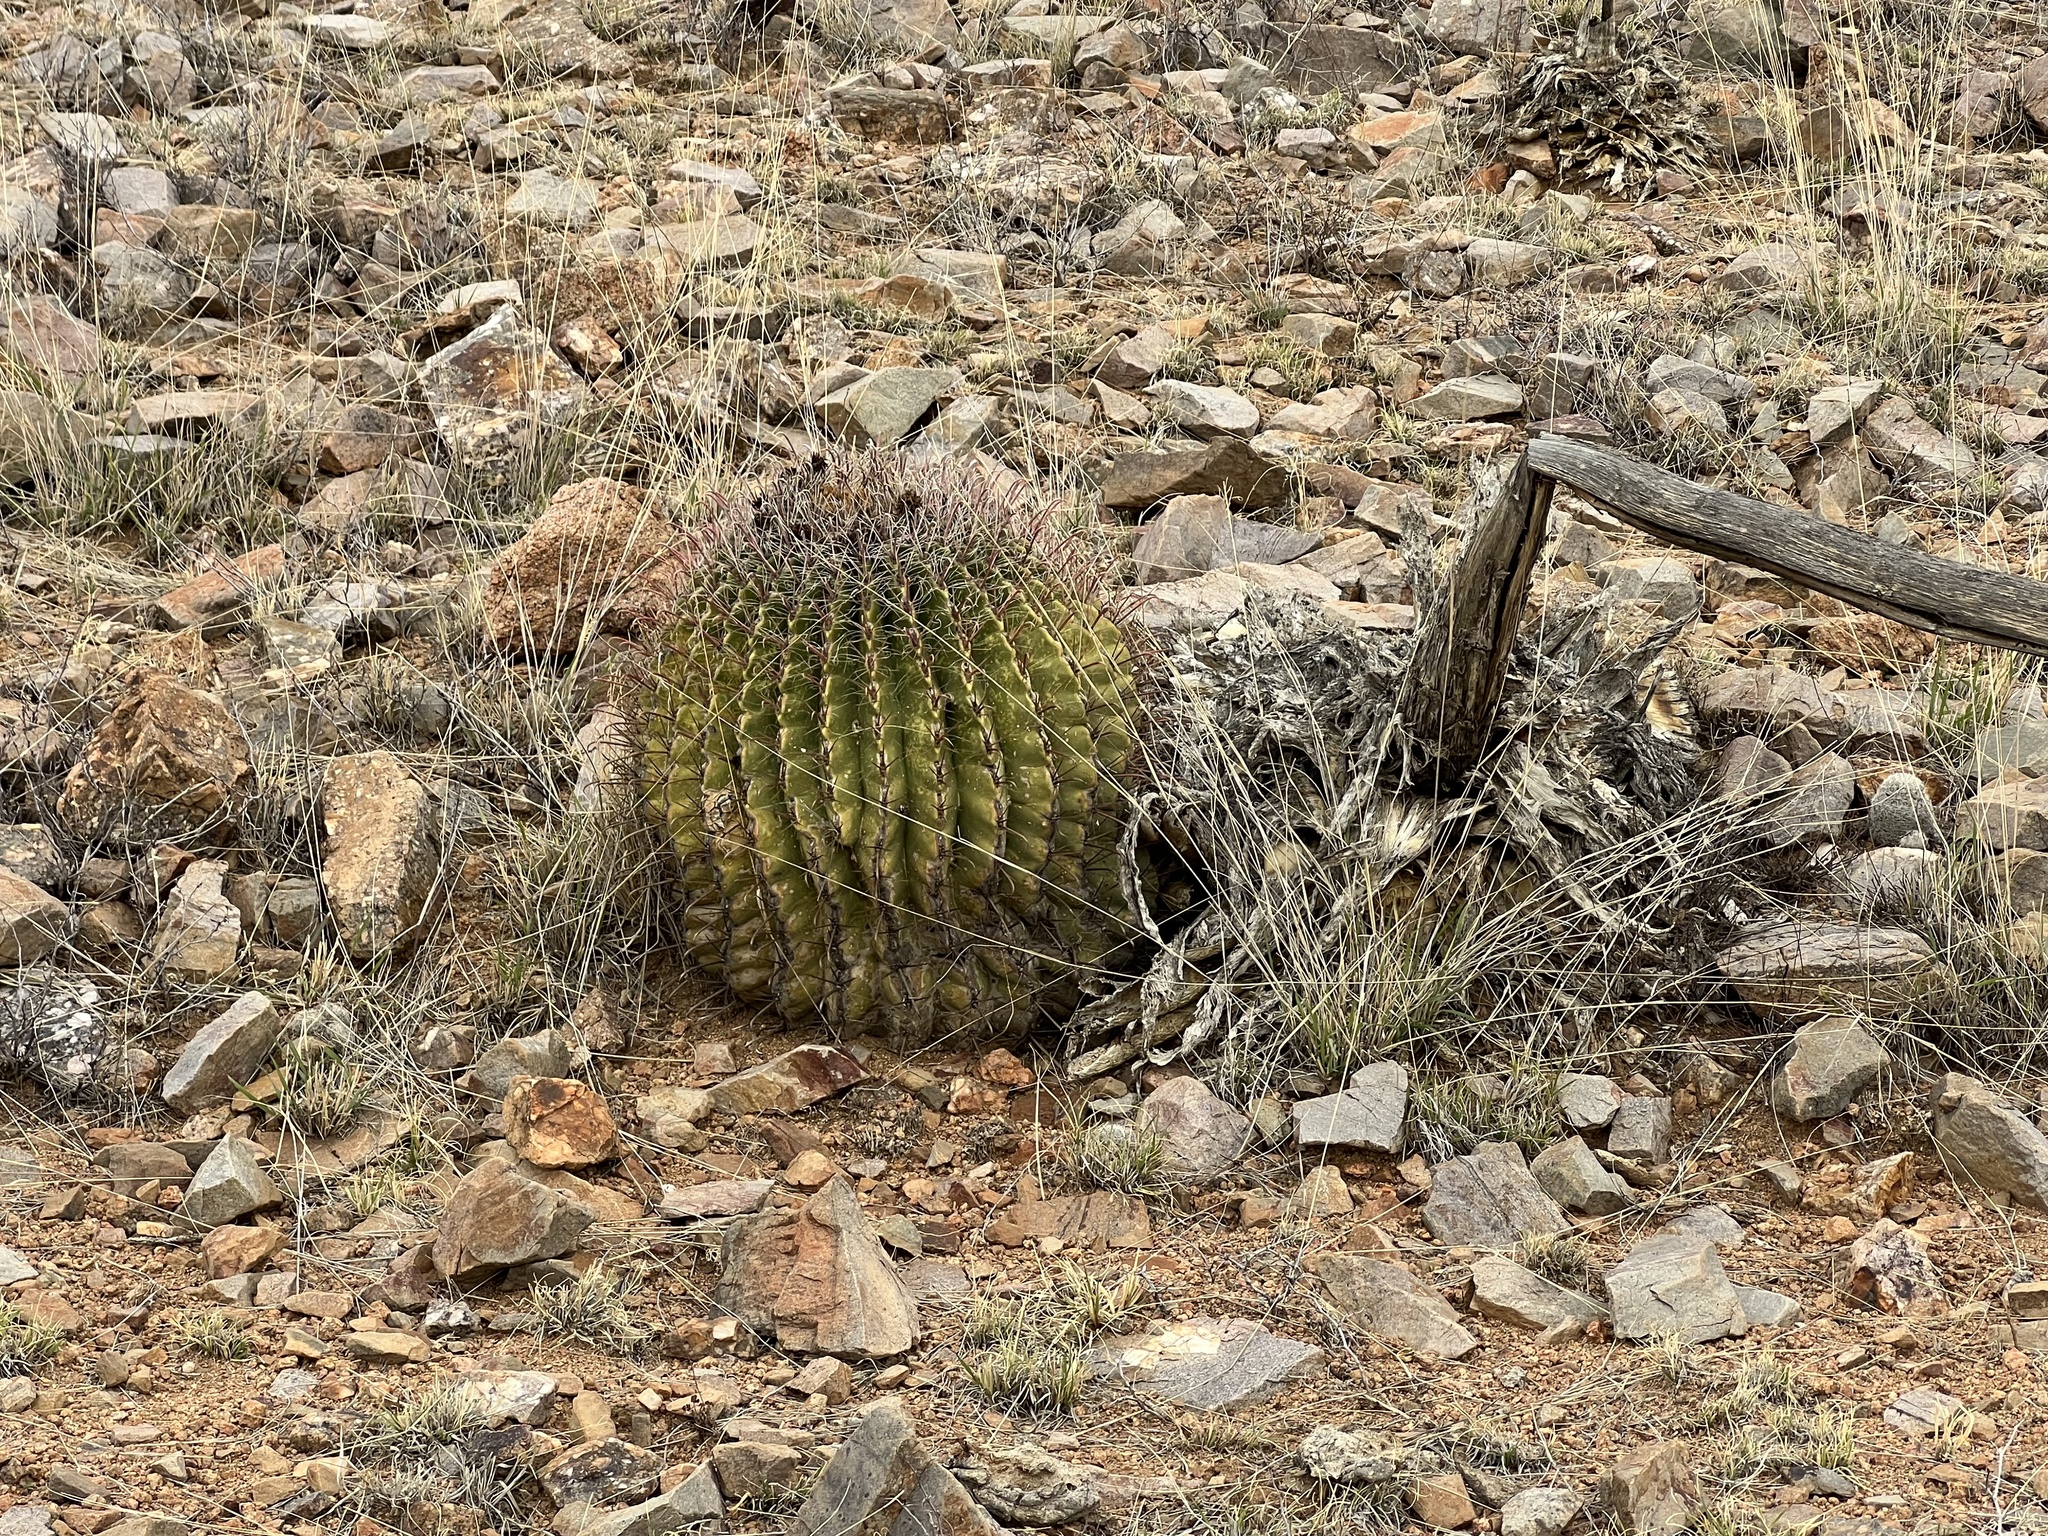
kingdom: Plantae
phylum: Tracheophyta
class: Magnoliopsida
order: Caryophyllales
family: Cactaceae
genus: Ferocactus
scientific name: Ferocactus wislizeni
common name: Candy barrel cactus
